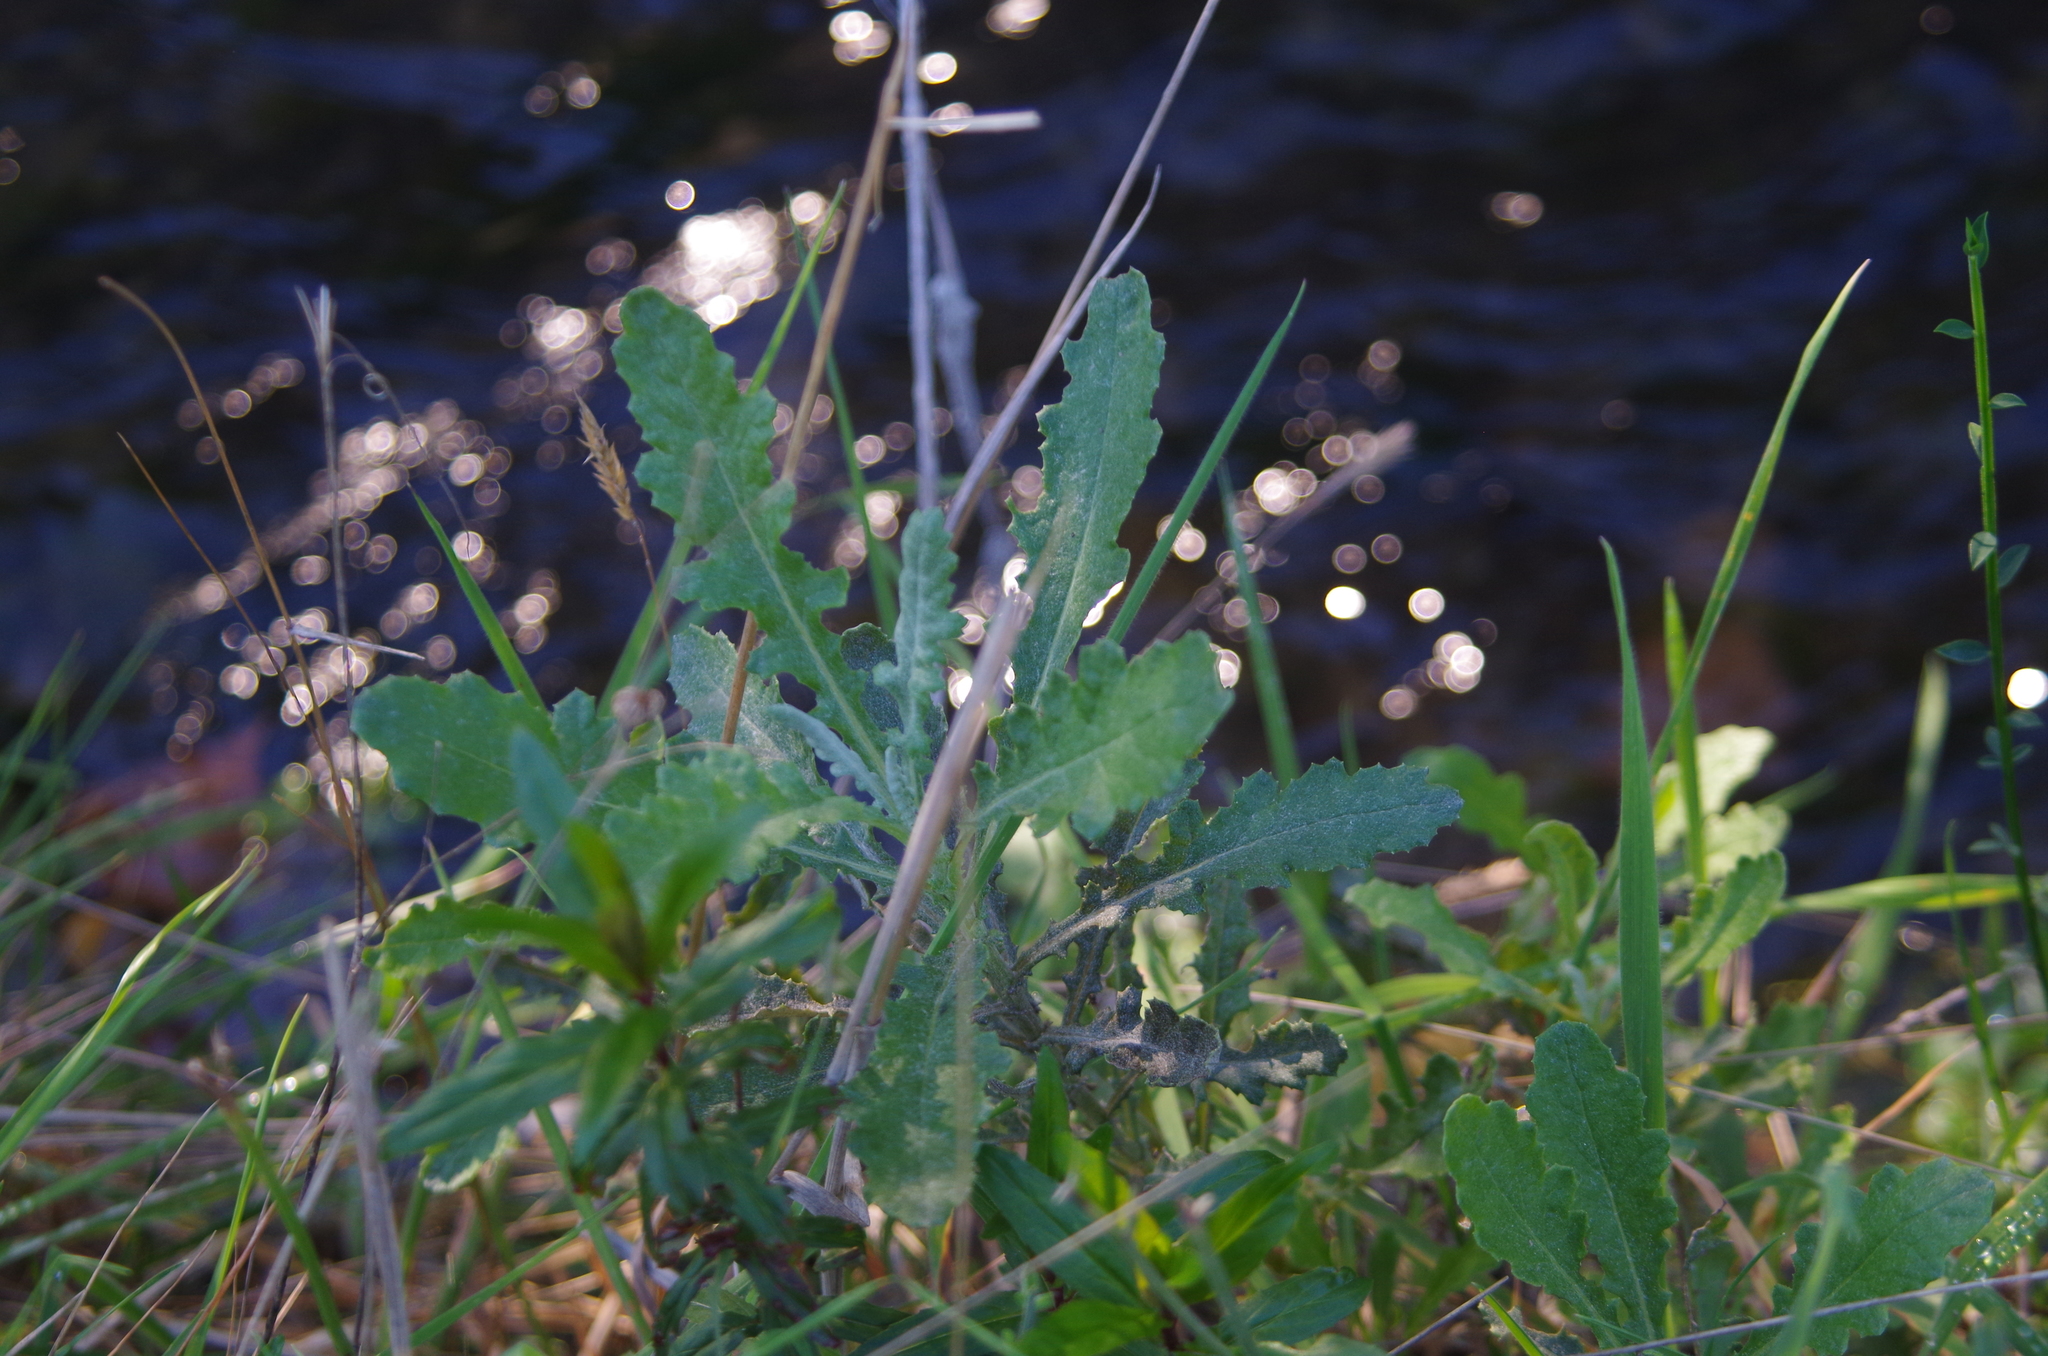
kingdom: Plantae
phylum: Tracheophyta
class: Magnoliopsida
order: Asterales
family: Asteraceae
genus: Senecio
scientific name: Senecio glomeratus
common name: Cutleaf burnweed
